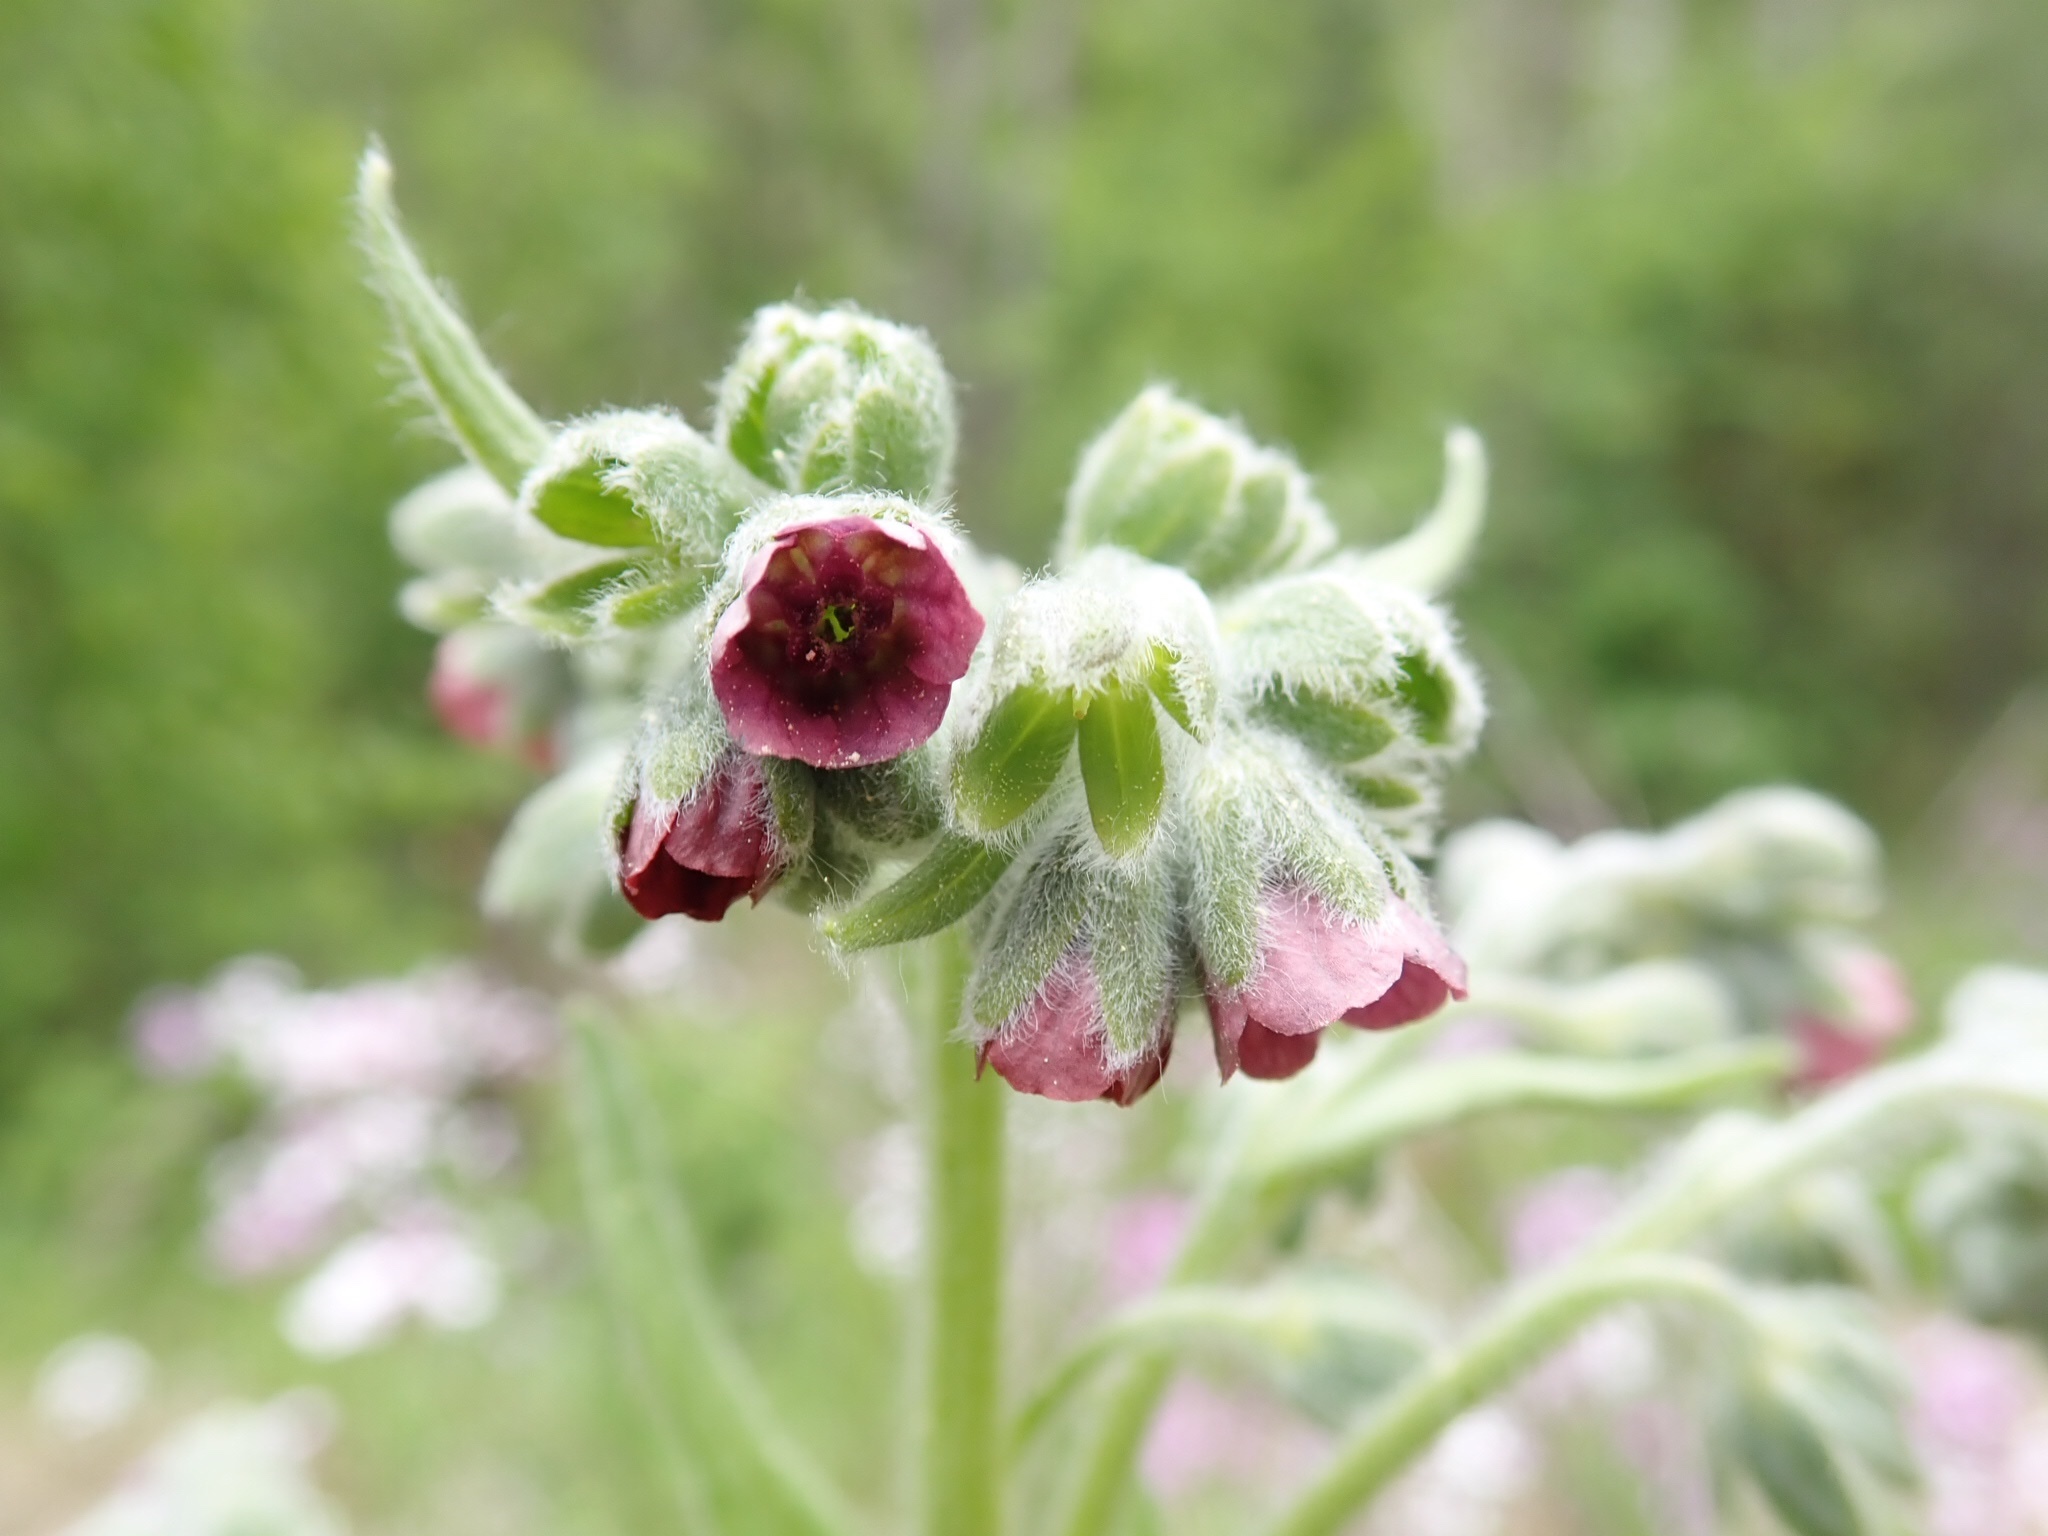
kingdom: Plantae
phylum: Tracheophyta
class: Magnoliopsida
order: Boraginales
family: Boraginaceae
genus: Cynoglossum
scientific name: Cynoglossum officinale
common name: Hound's-tongue
